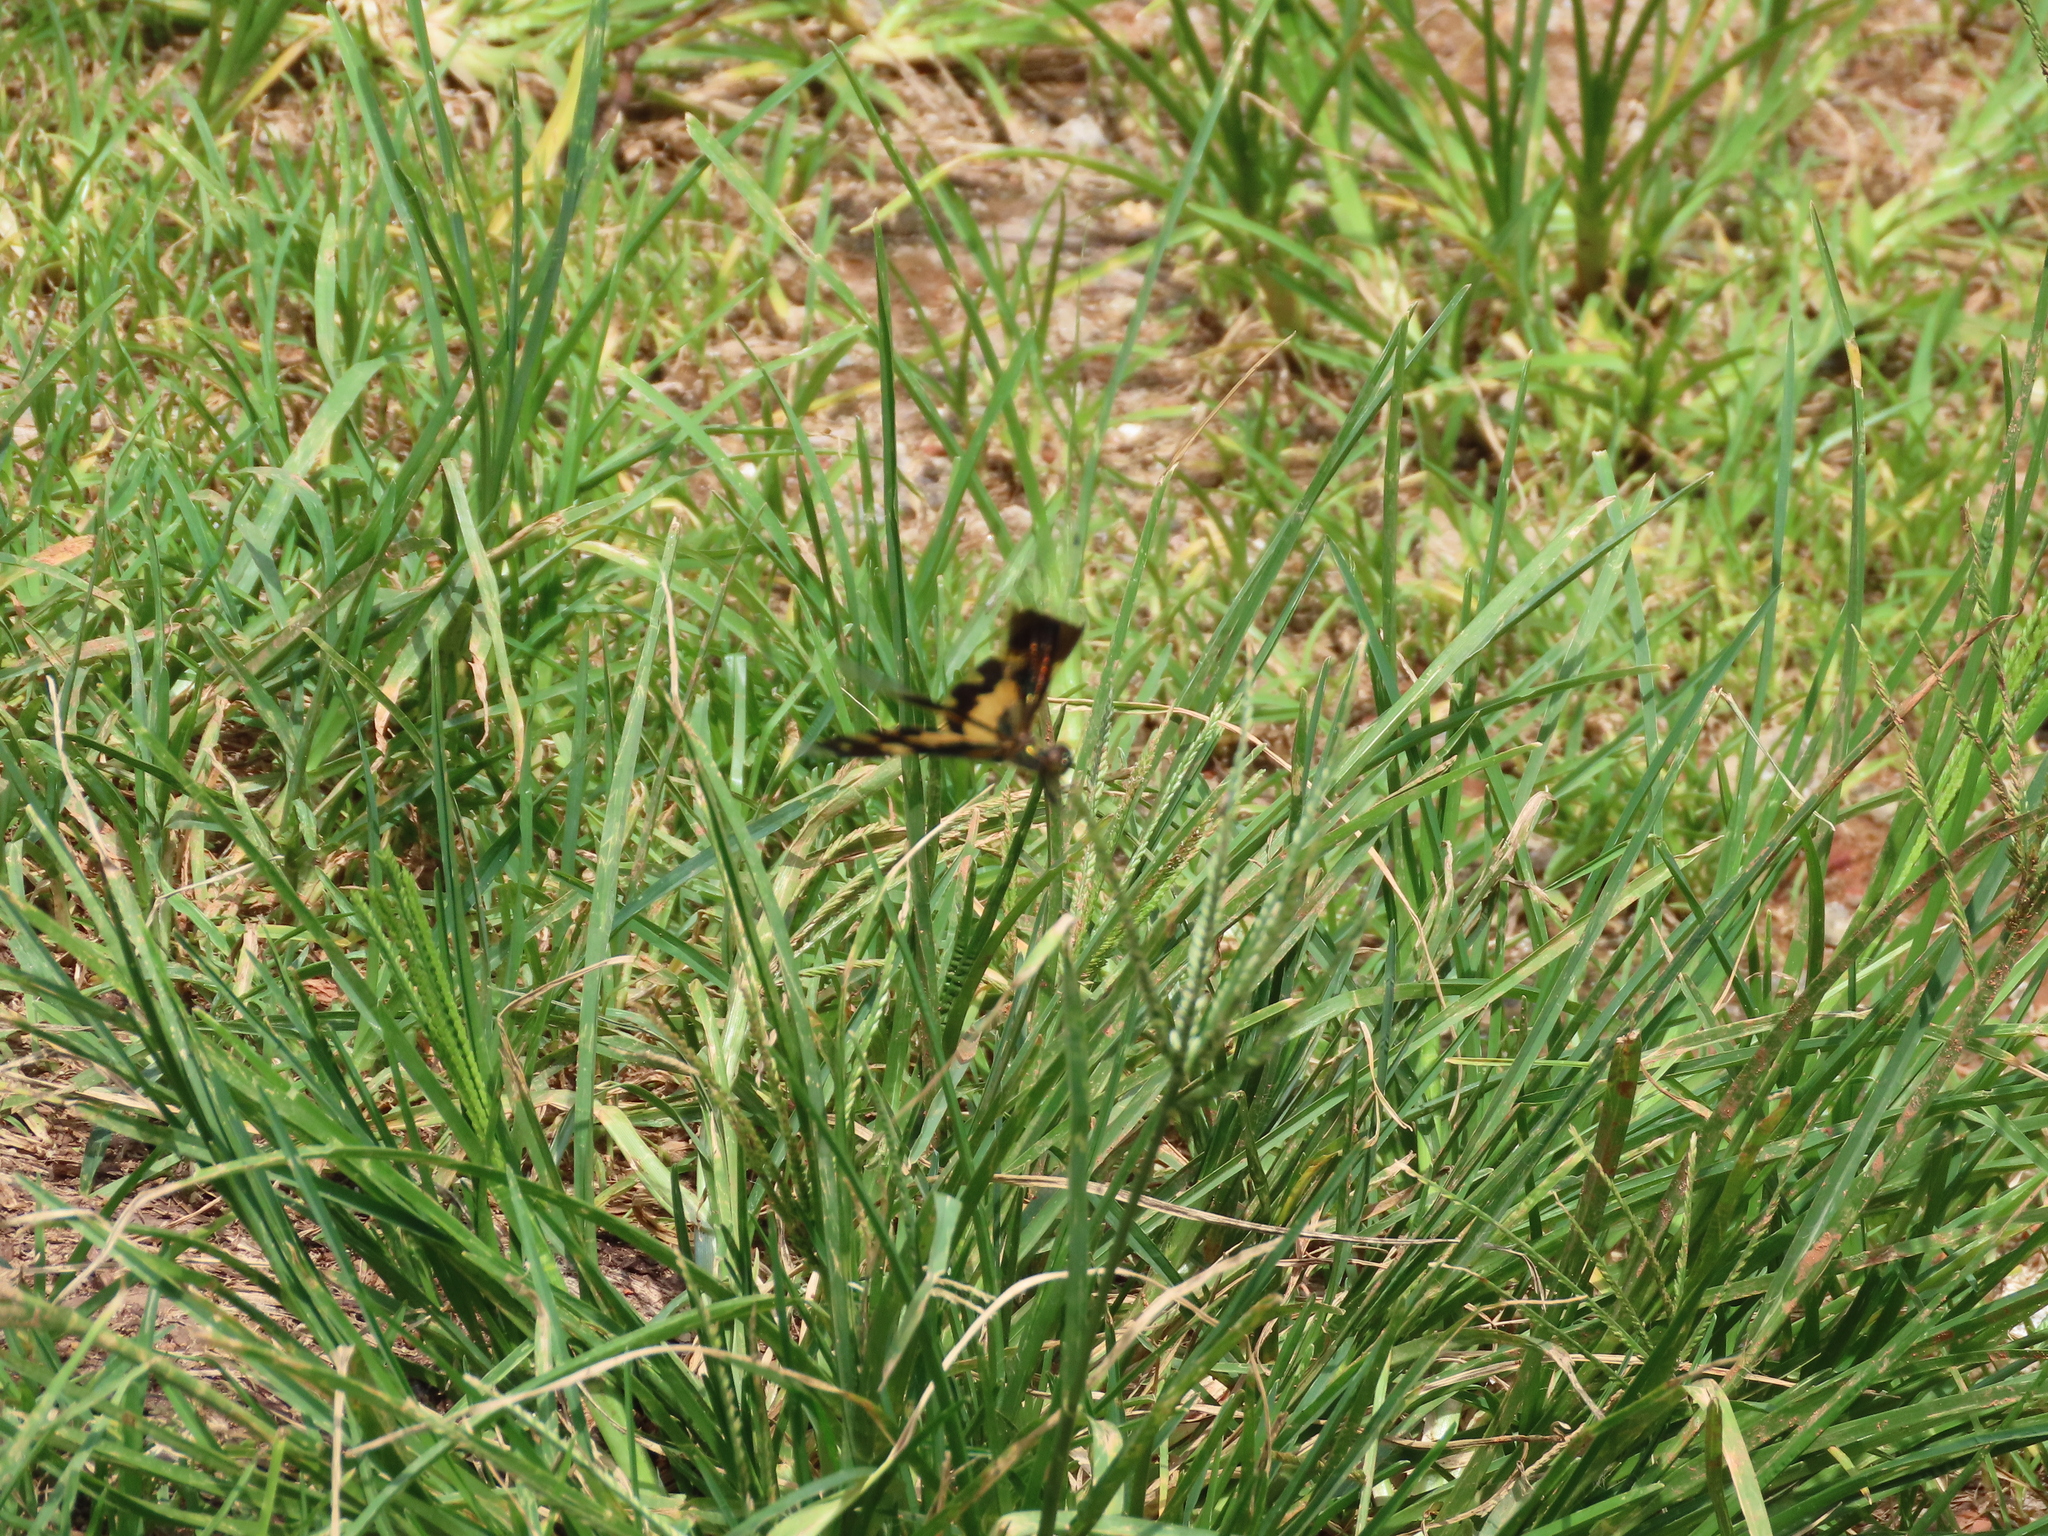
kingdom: Animalia
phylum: Arthropoda
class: Insecta
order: Odonata
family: Libellulidae
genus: Rhyothemis
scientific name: Rhyothemis variegata
